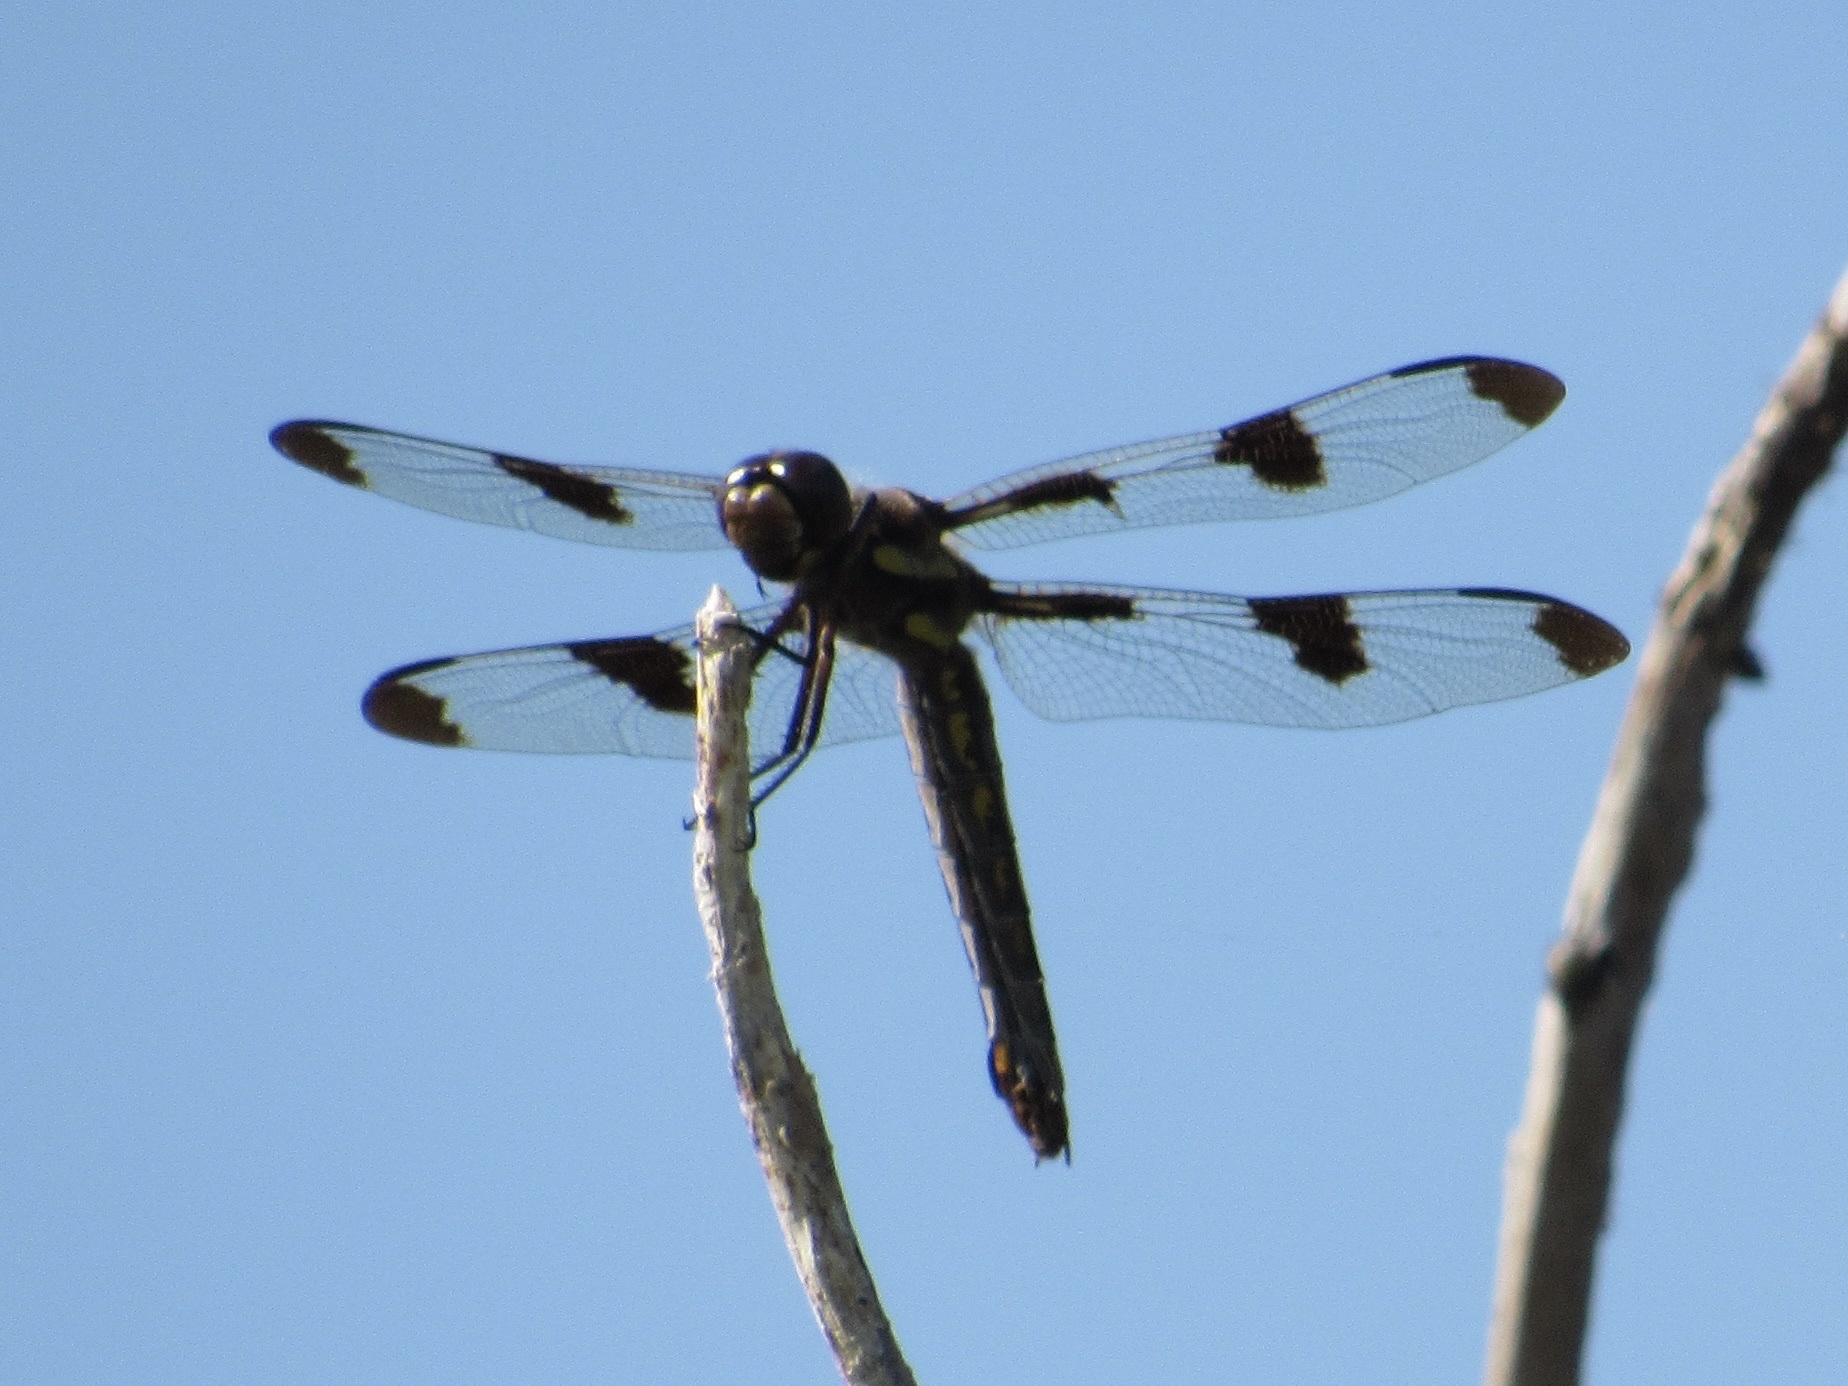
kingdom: Animalia
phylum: Arthropoda
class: Insecta
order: Odonata
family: Libellulidae
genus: Libellula
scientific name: Libellula pulchella
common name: Twelve-spotted skimmer
